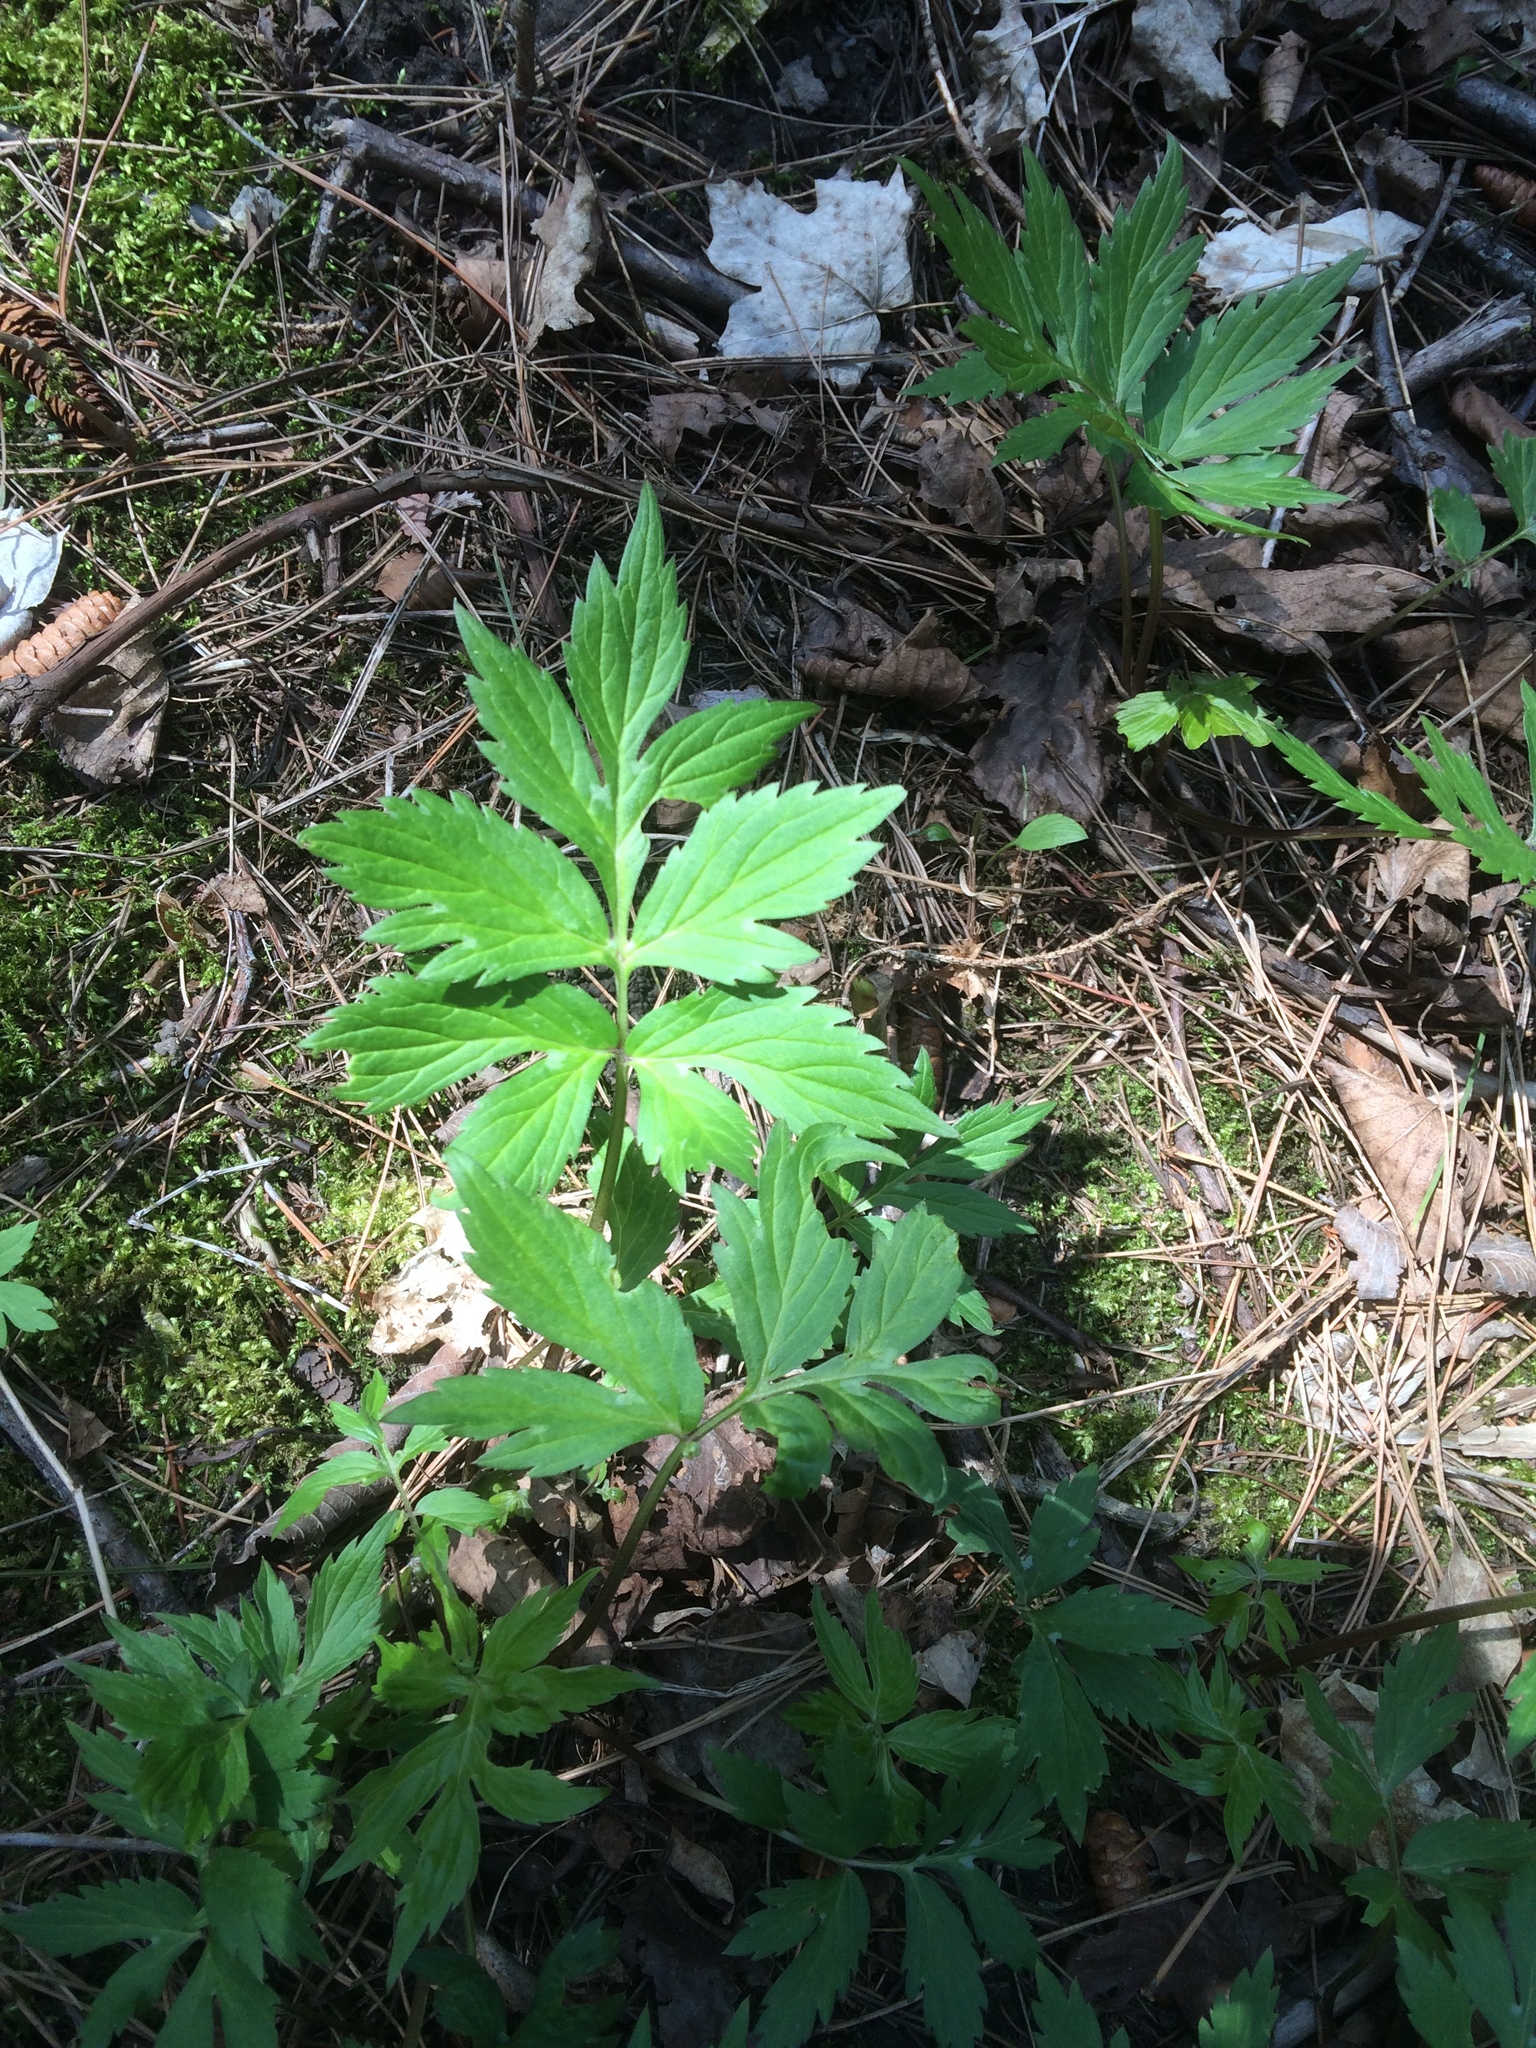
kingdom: Plantae
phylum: Tracheophyta
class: Magnoliopsida
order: Boraginales
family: Hydrophyllaceae
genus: Hydrophyllum
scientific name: Hydrophyllum virginianum
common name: Virginia waterleaf
